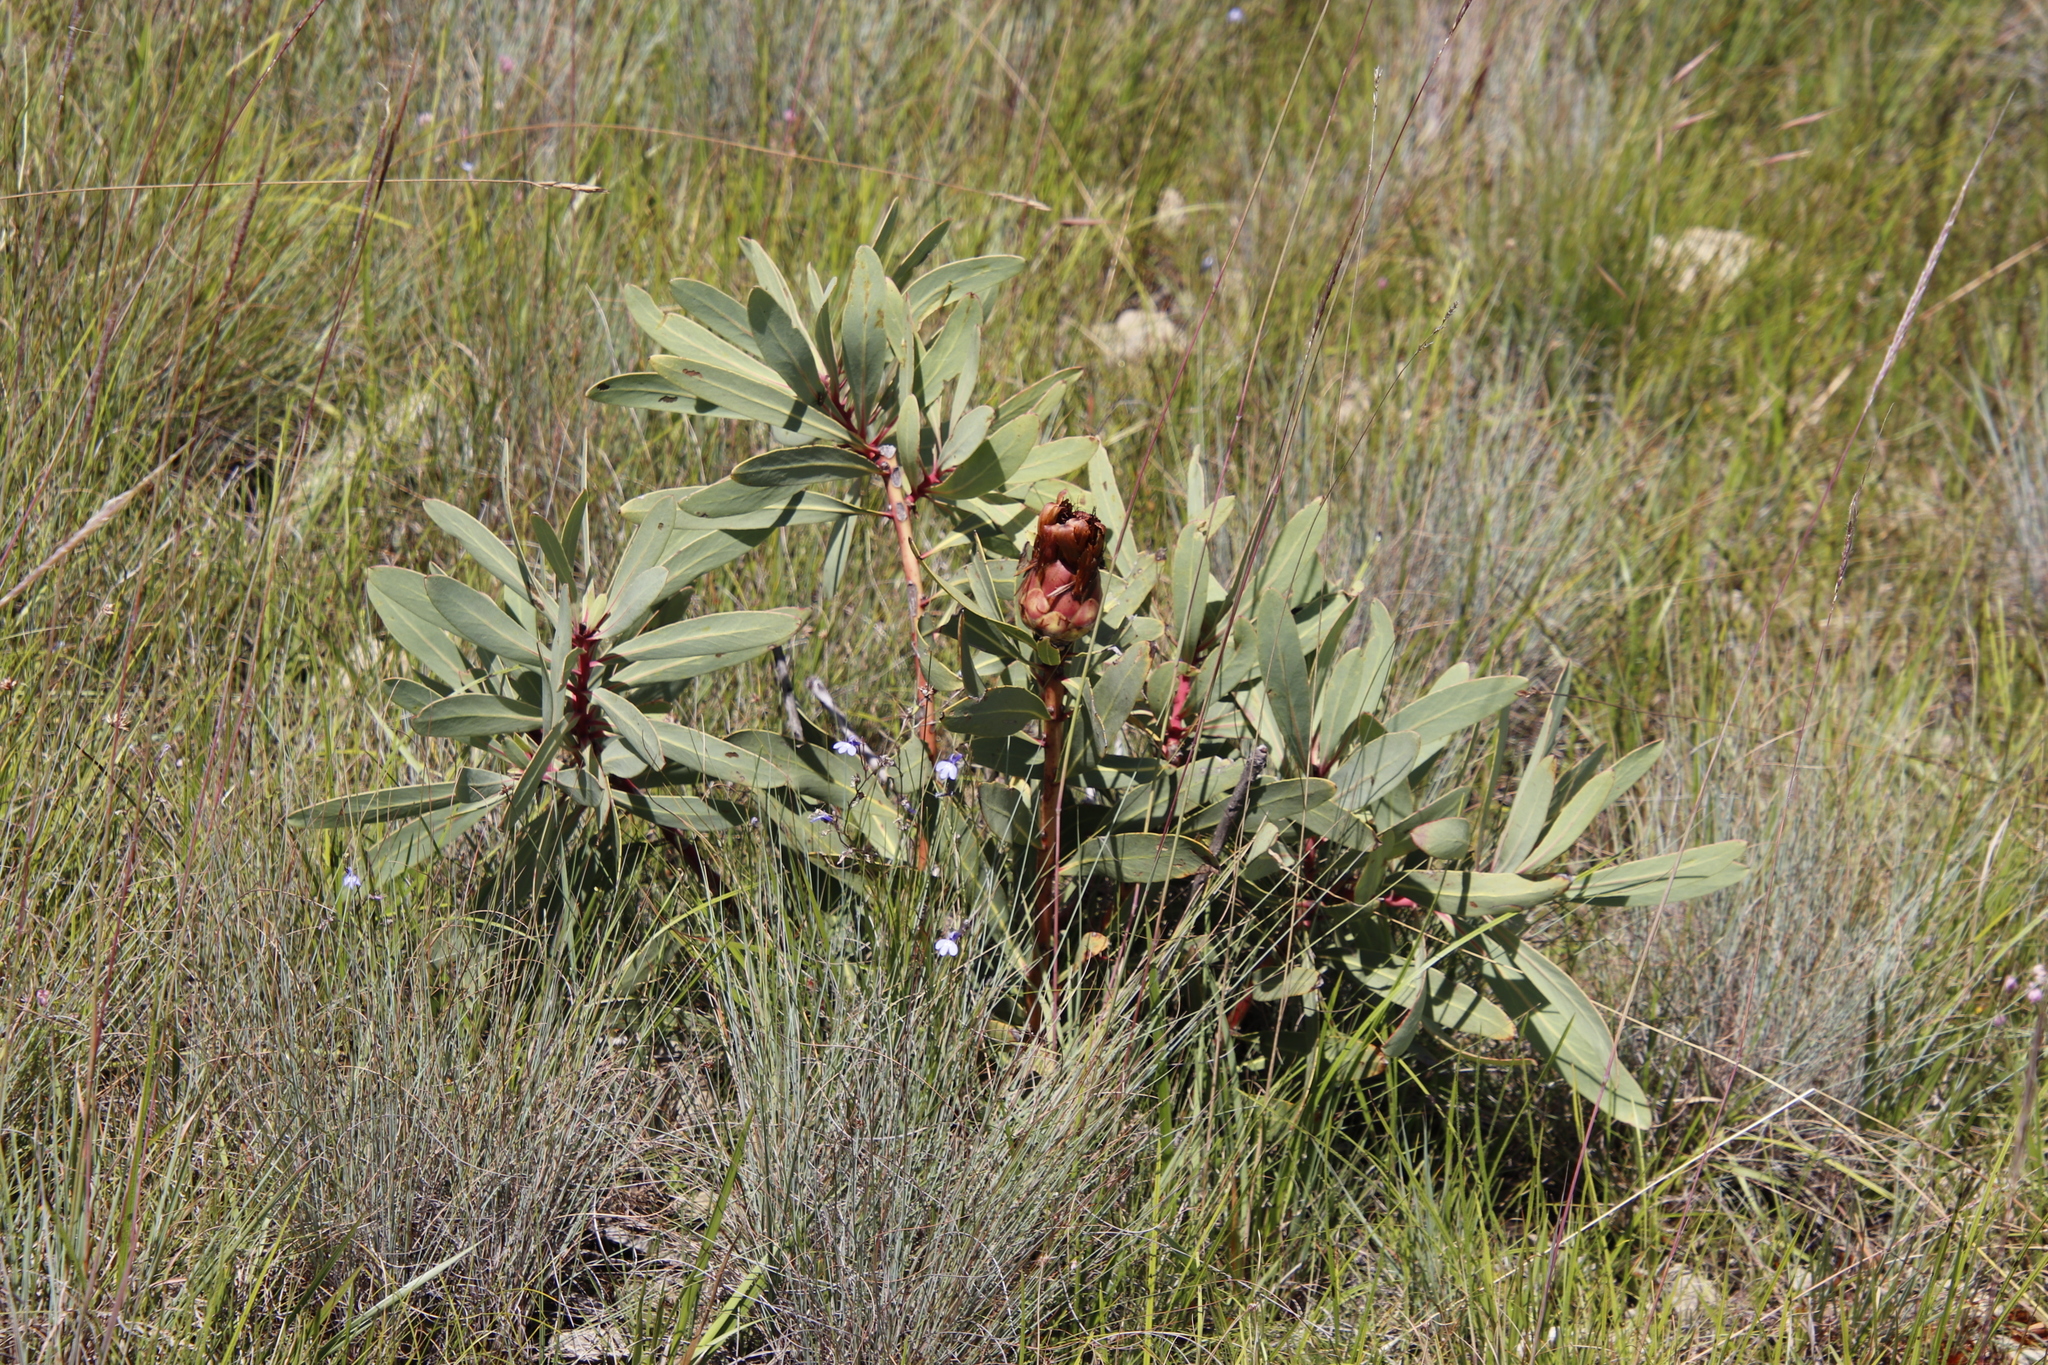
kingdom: Plantae
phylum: Tracheophyta
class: Magnoliopsida
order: Proteales
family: Proteaceae
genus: Protea
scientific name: Protea caffra
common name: Common sugarbush
